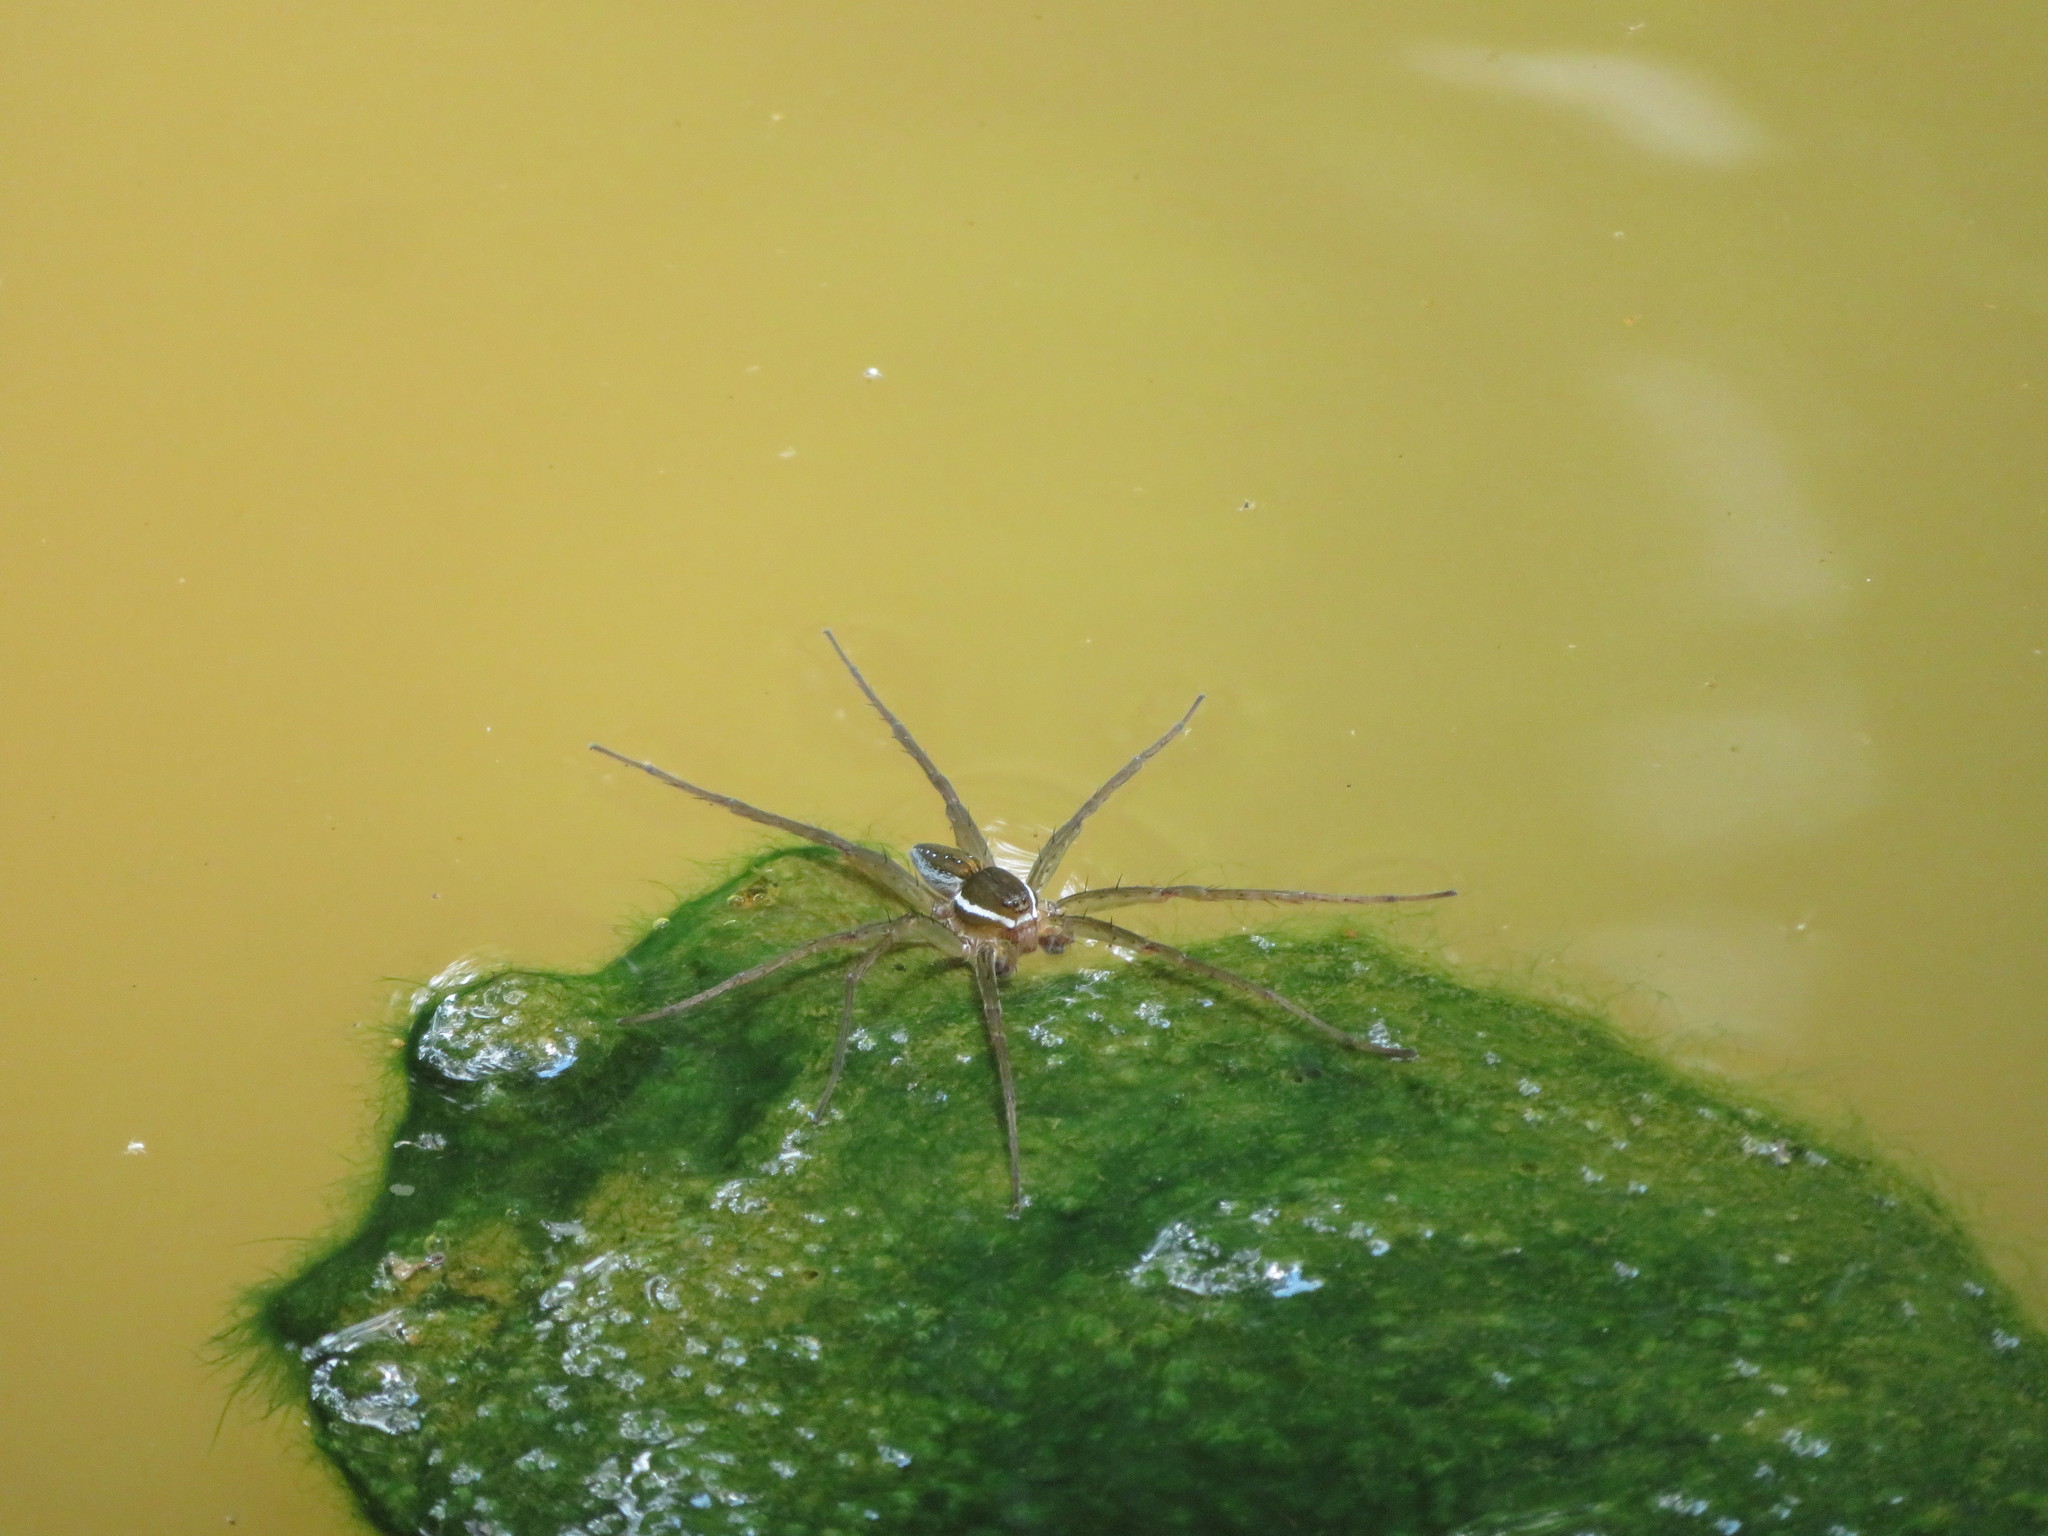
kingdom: Animalia
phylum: Arthropoda
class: Arachnida
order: Araneae
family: Pisauridae
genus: Dolomedes
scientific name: Dolomedes triton
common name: Six-spotted fishing spider
